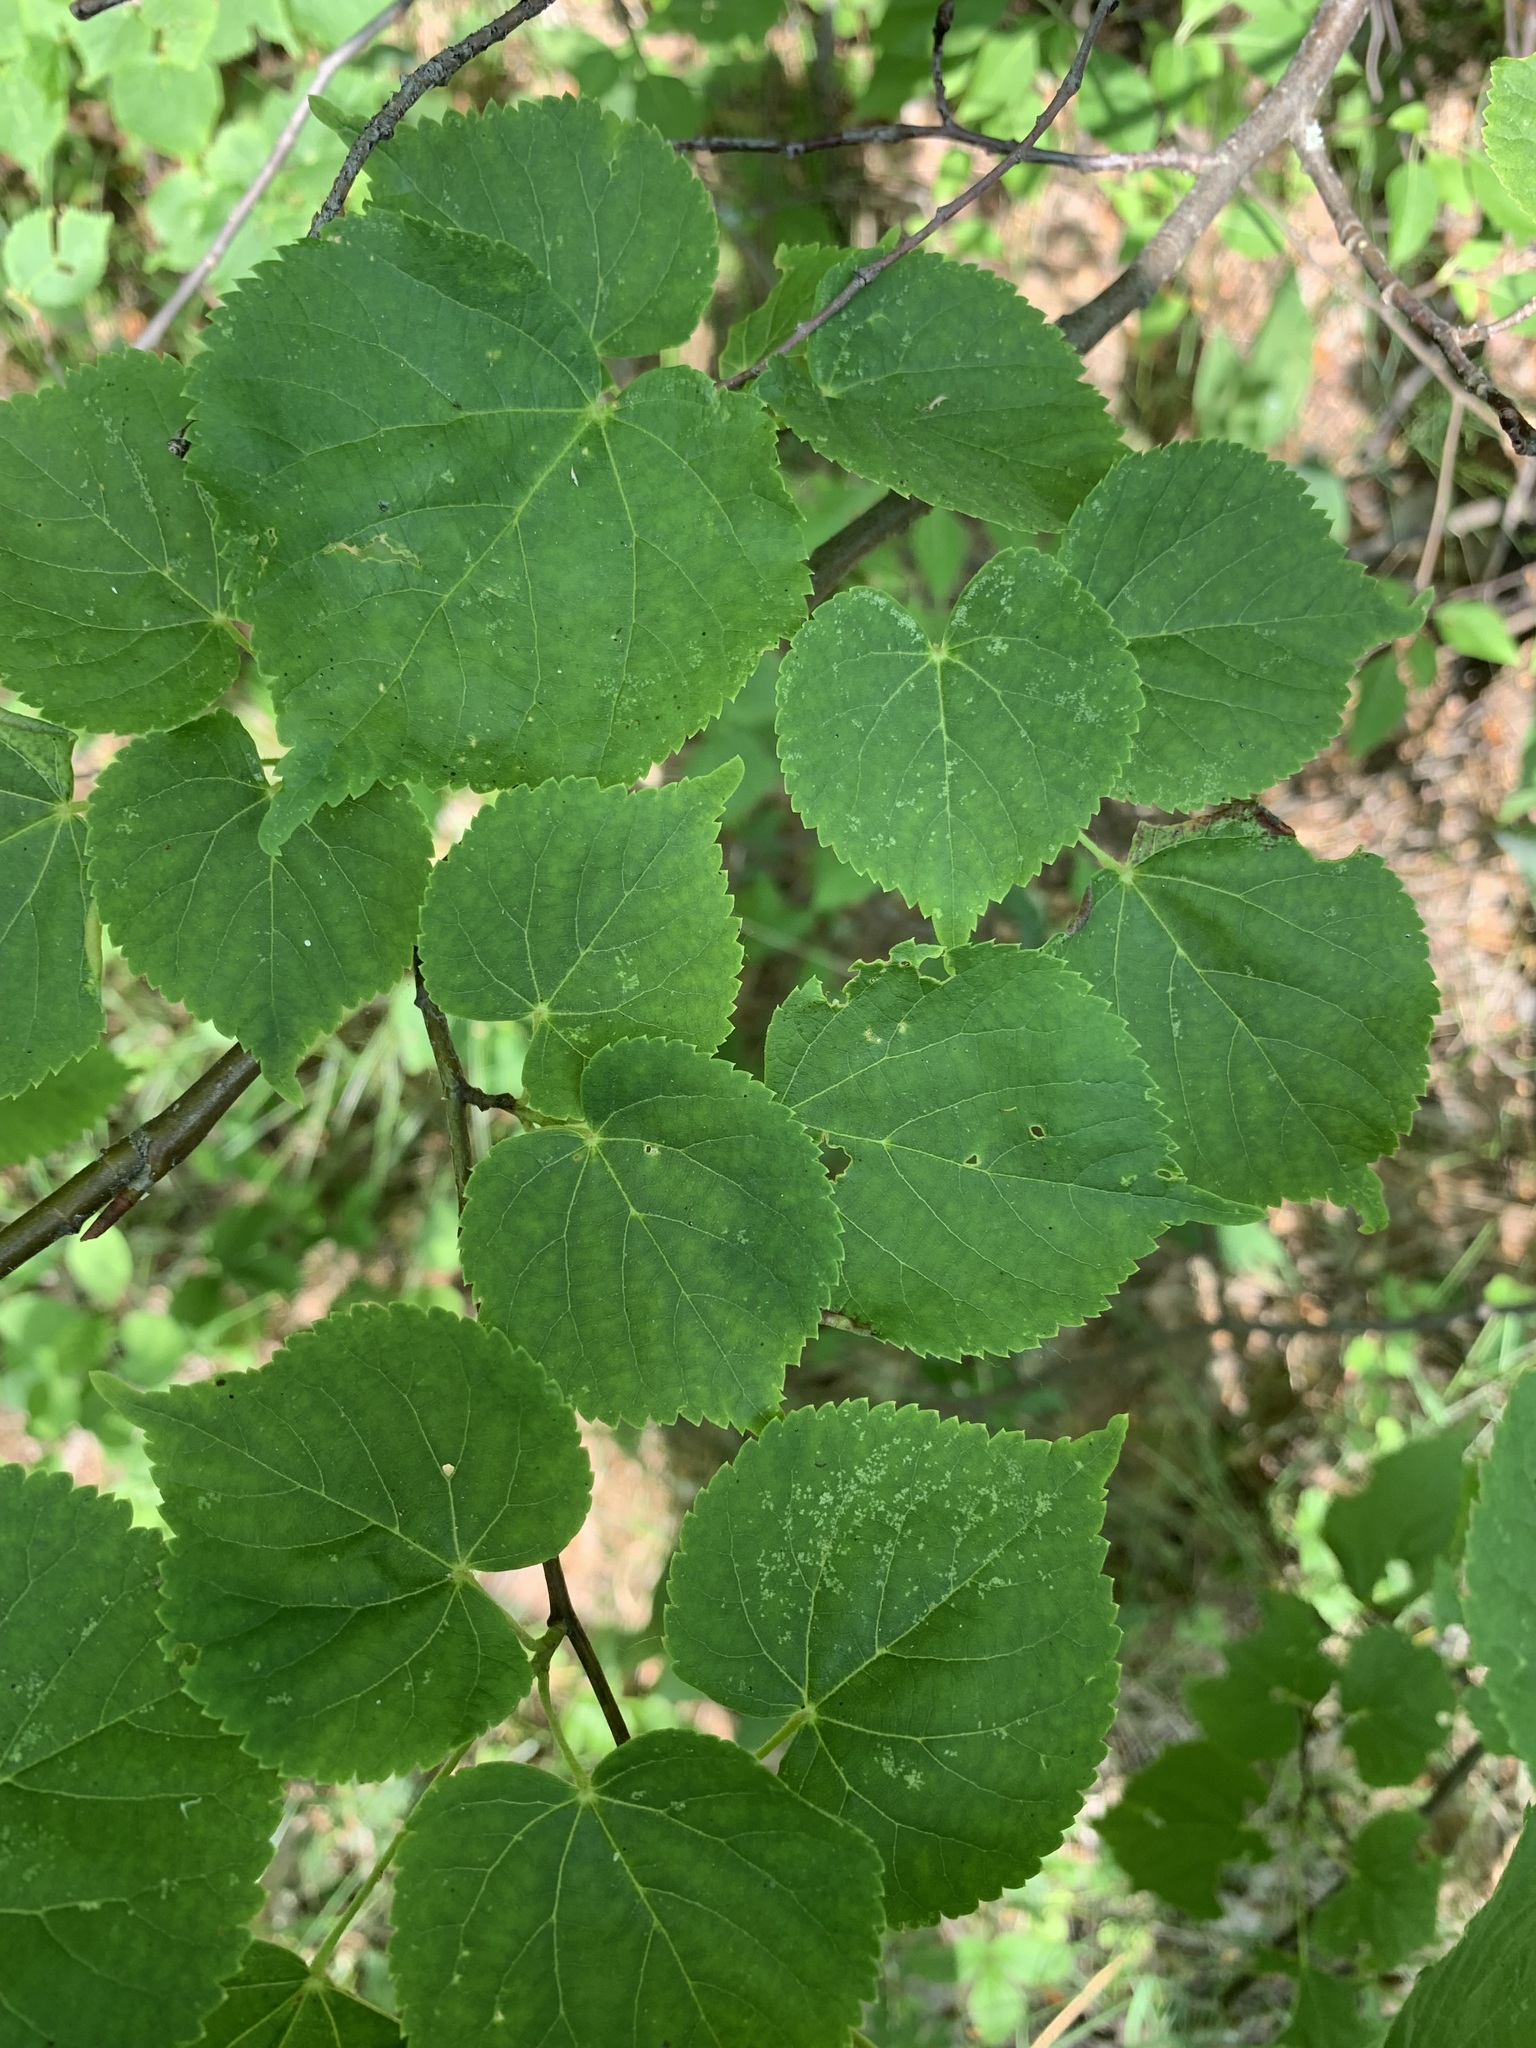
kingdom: Plantae
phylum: Tracheophyta
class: Magnoliopsida
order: Malvales
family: Malvaceae
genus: Tilia
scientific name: Tilia cordata
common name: Small-leaved lime
